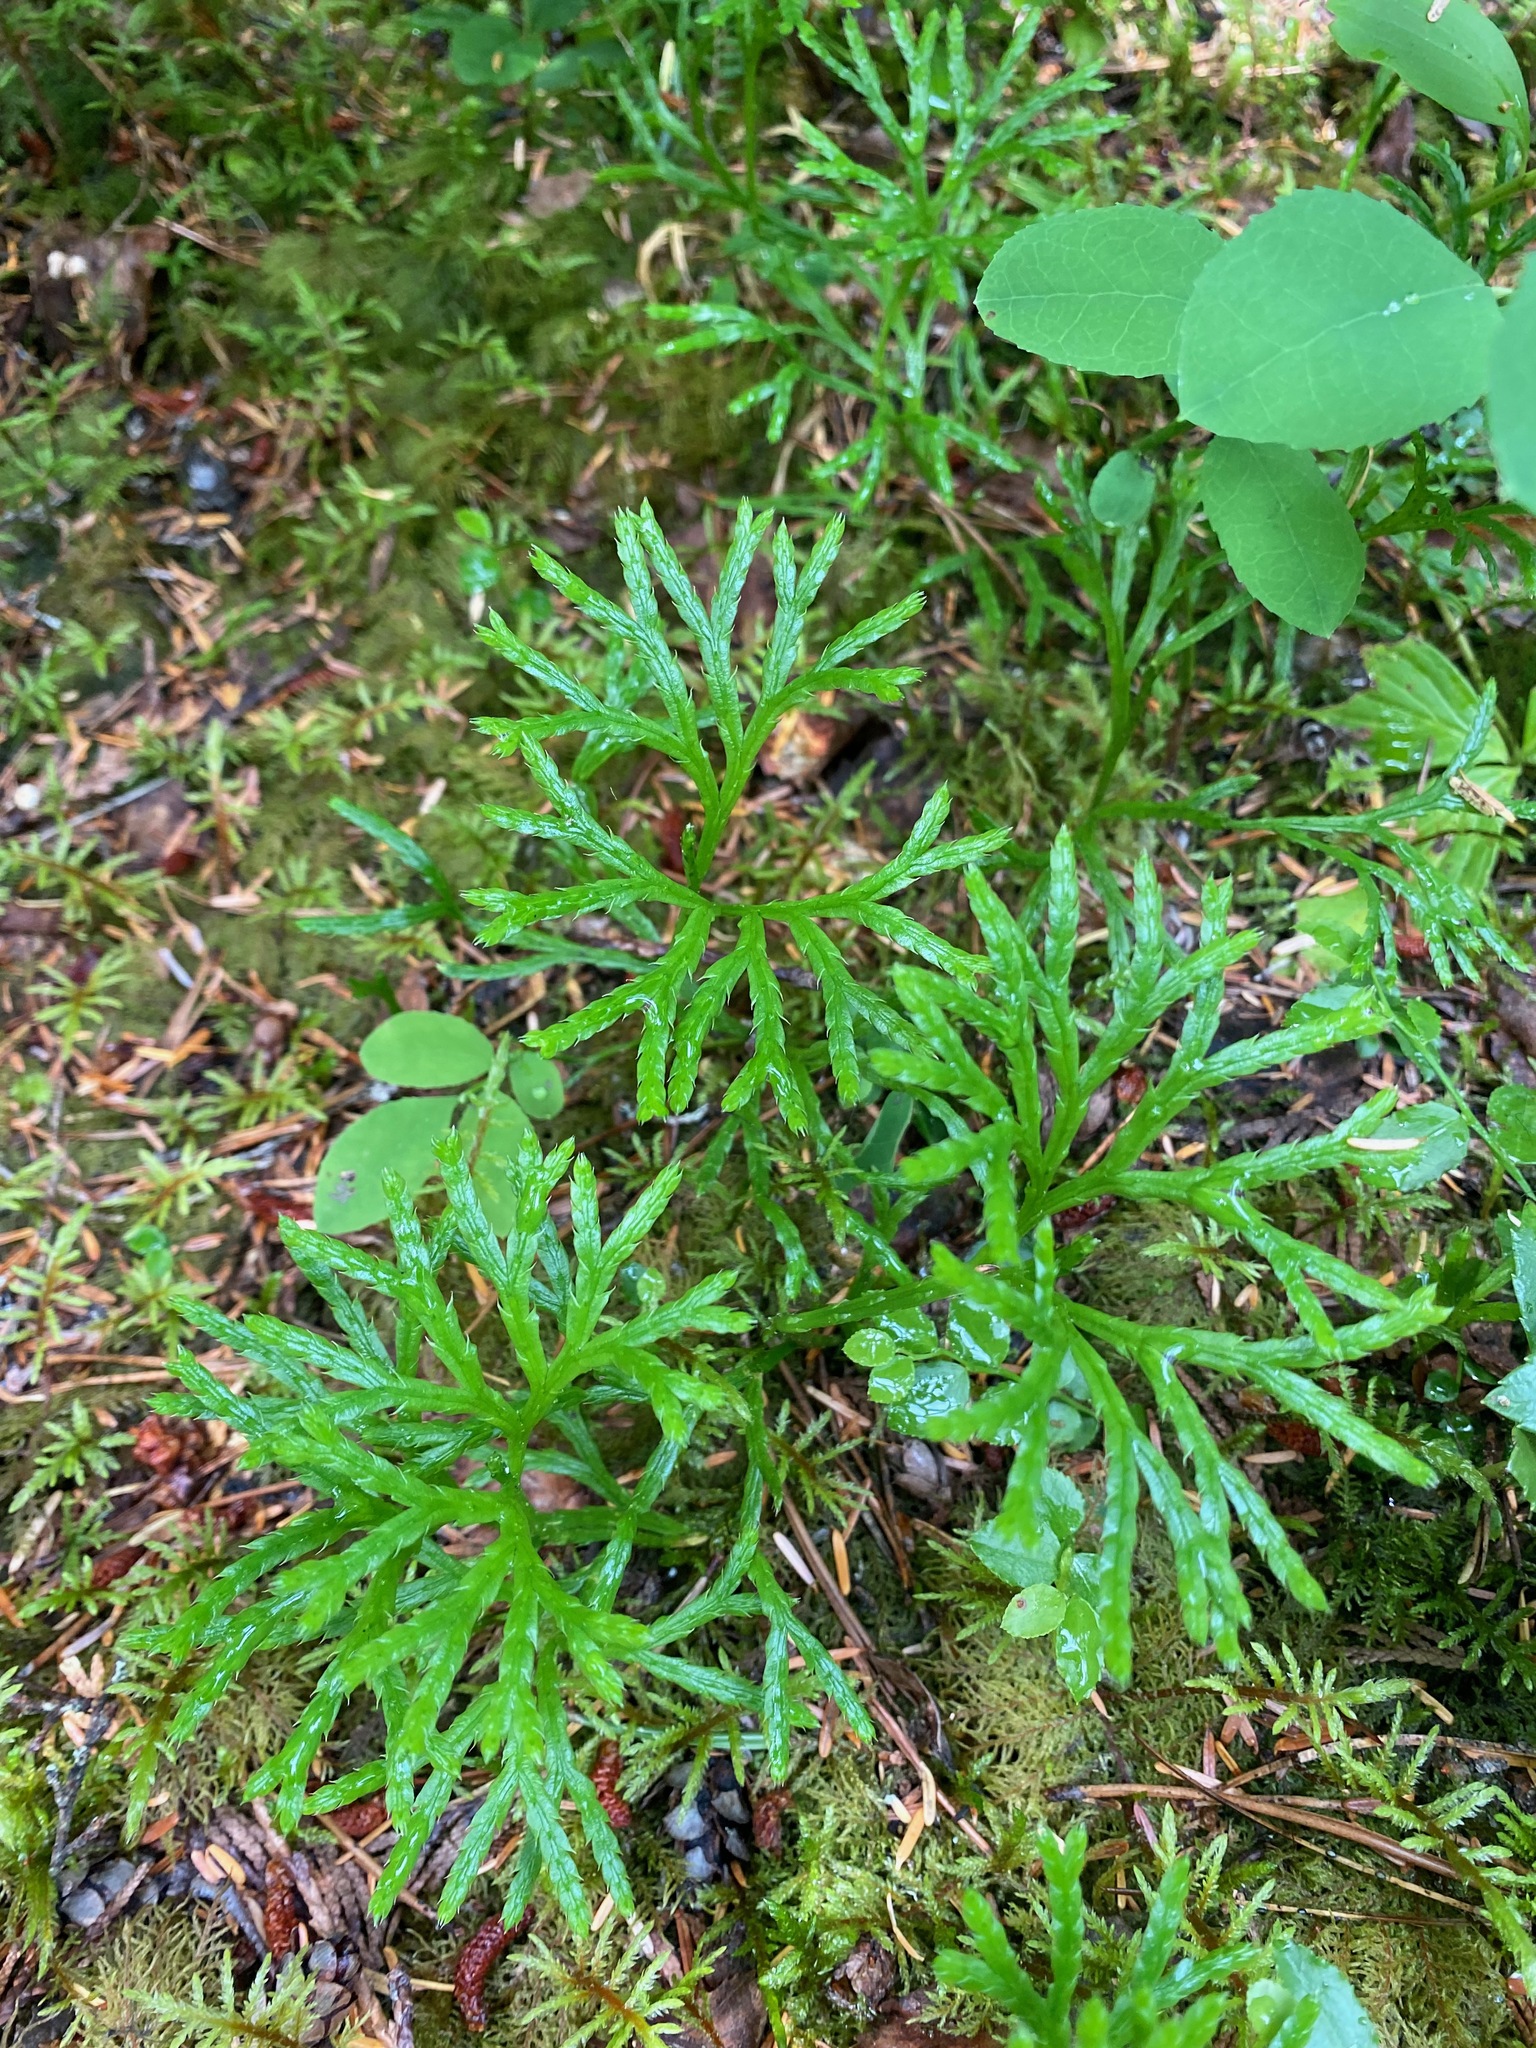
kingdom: Plantae
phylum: Tracheophyta
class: Lycopodiopsida
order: Lycopodiales
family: Lycopodiaceae
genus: Diphasiastrum
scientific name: Diphasiastrum complanatum
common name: Northern running-pine
